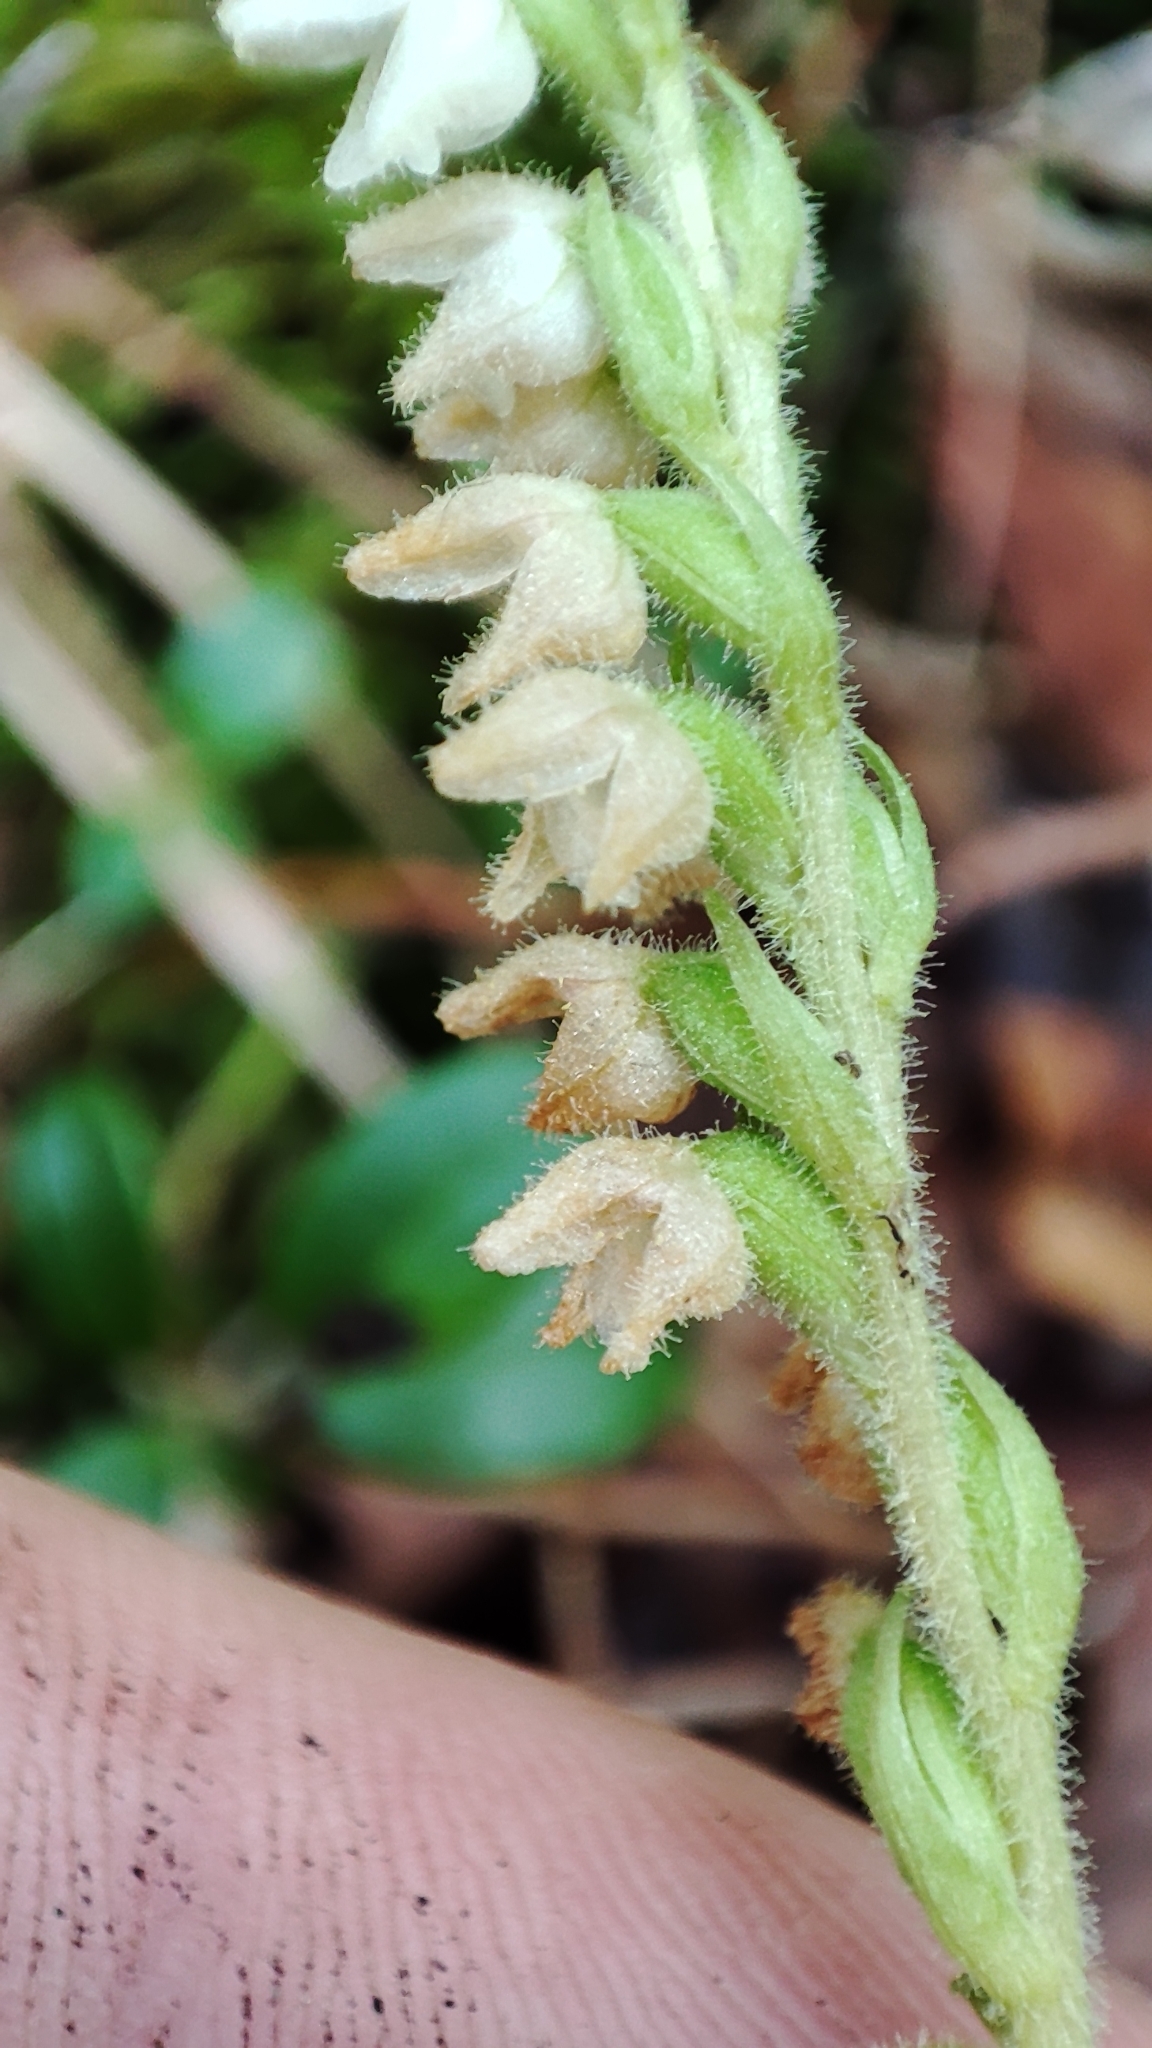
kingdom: Plantae
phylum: Tracheophyta
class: Liliopsida
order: Asparagales
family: Orchidaceae
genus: Goodyera
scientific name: Goodyera repens
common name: Creeping lady's-tresses
